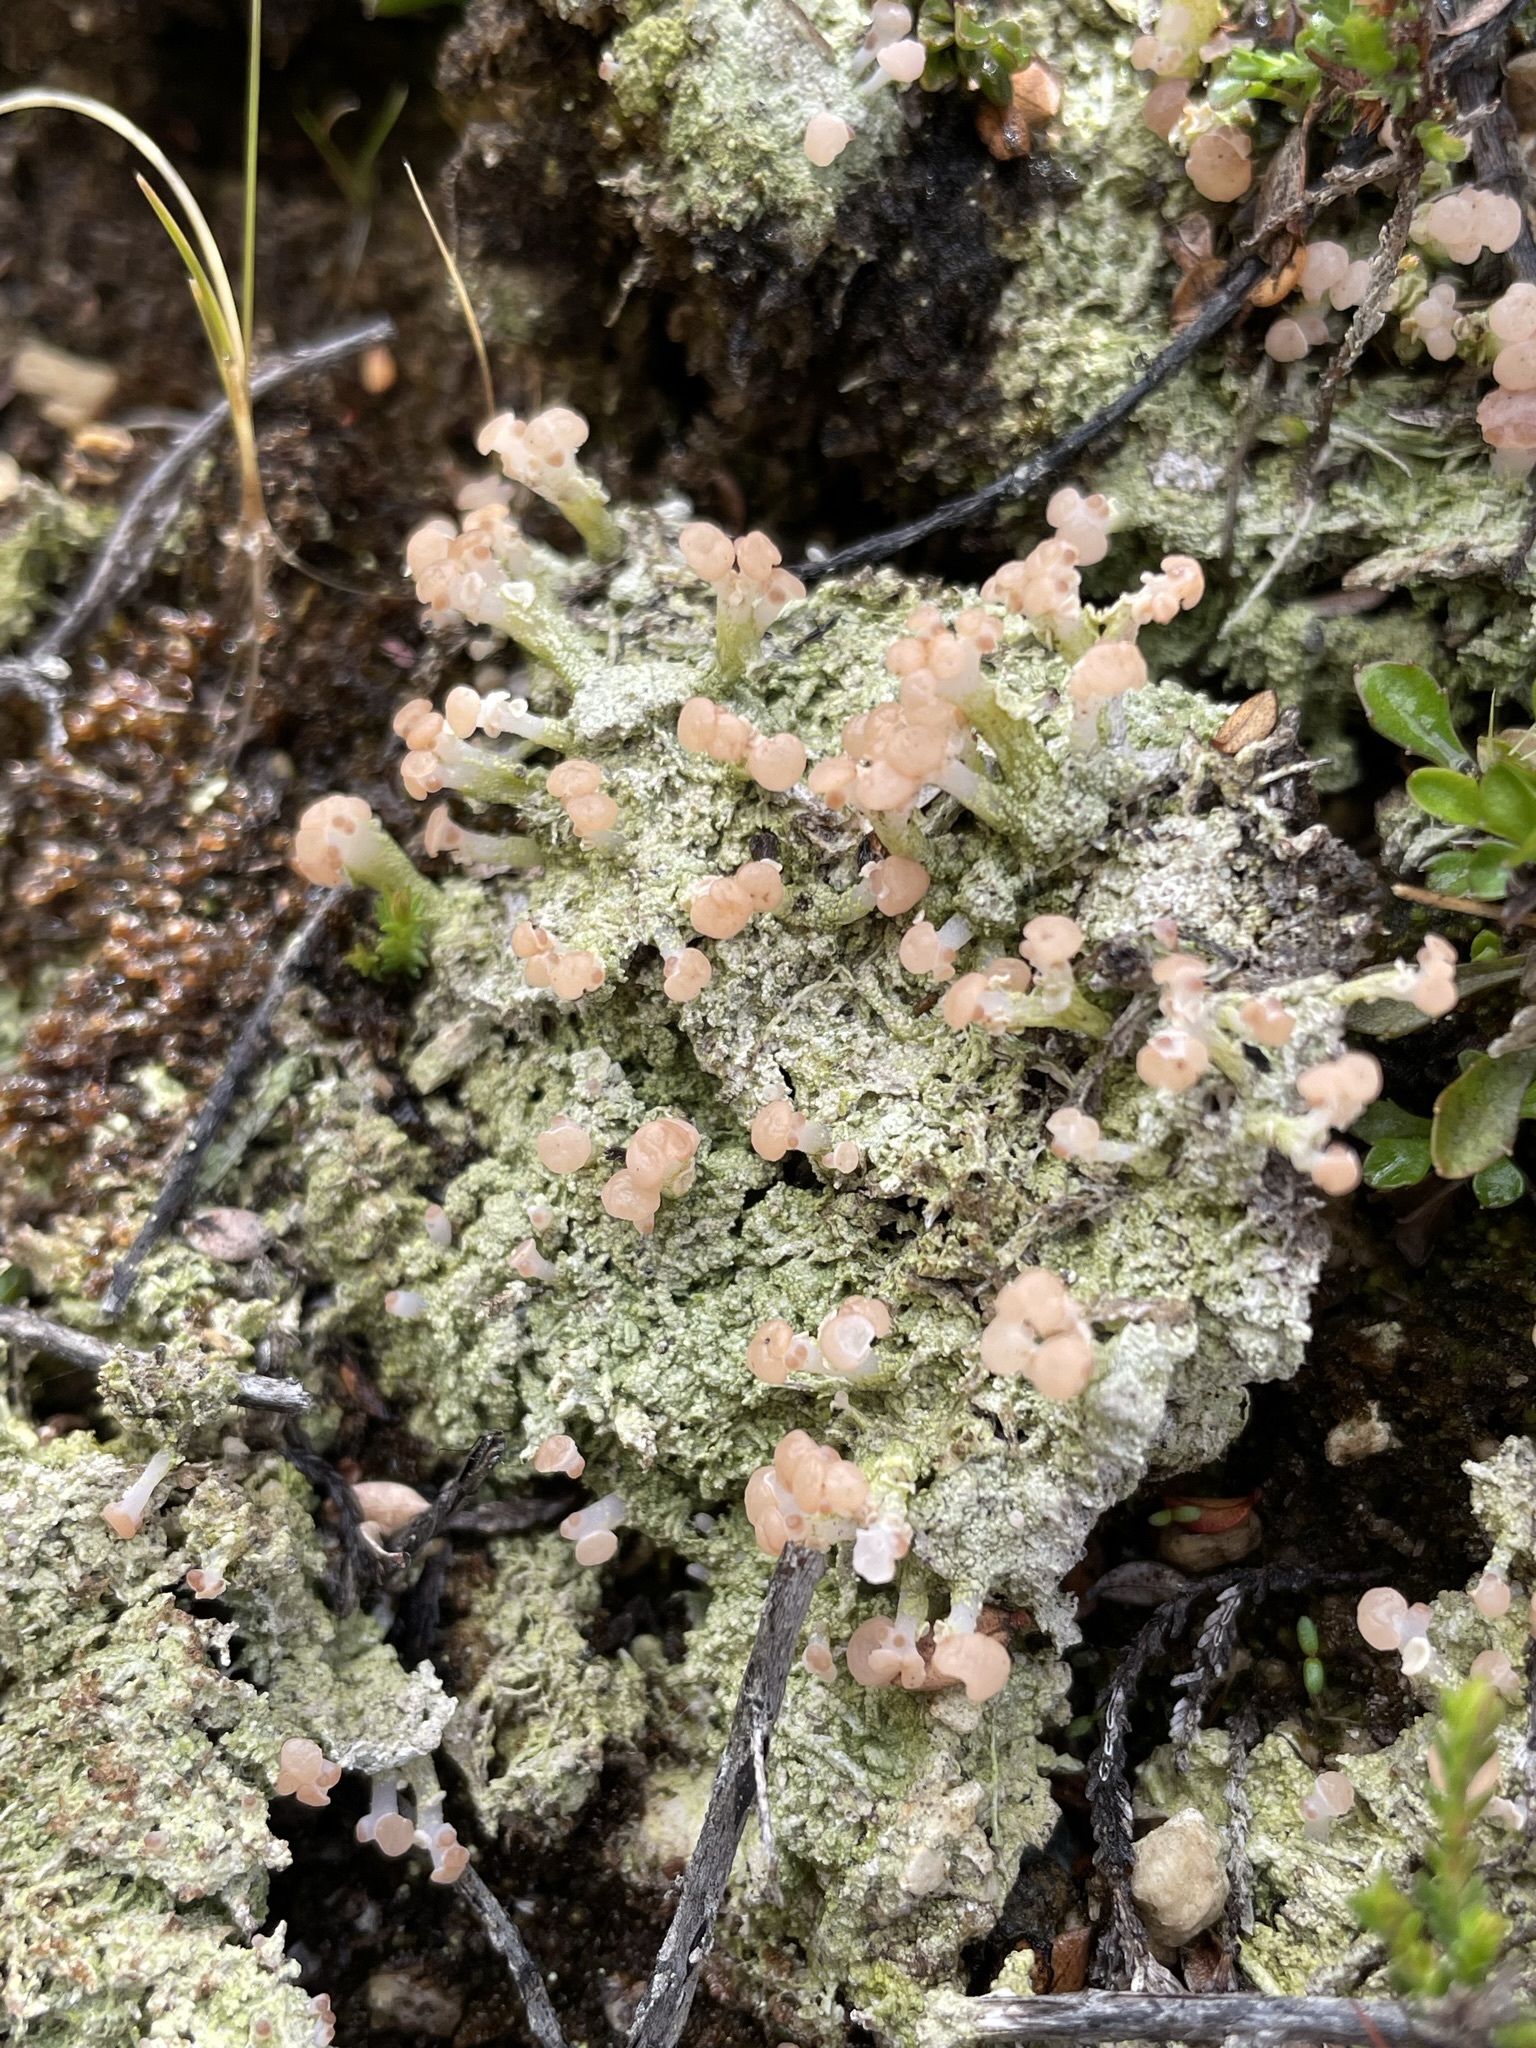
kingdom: Fungi
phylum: Ascomycota
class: Lecanoromycetes
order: Baeomycetales
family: Baeomycetaceae
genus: Baeomyces
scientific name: Baeomyces heteromorphus
